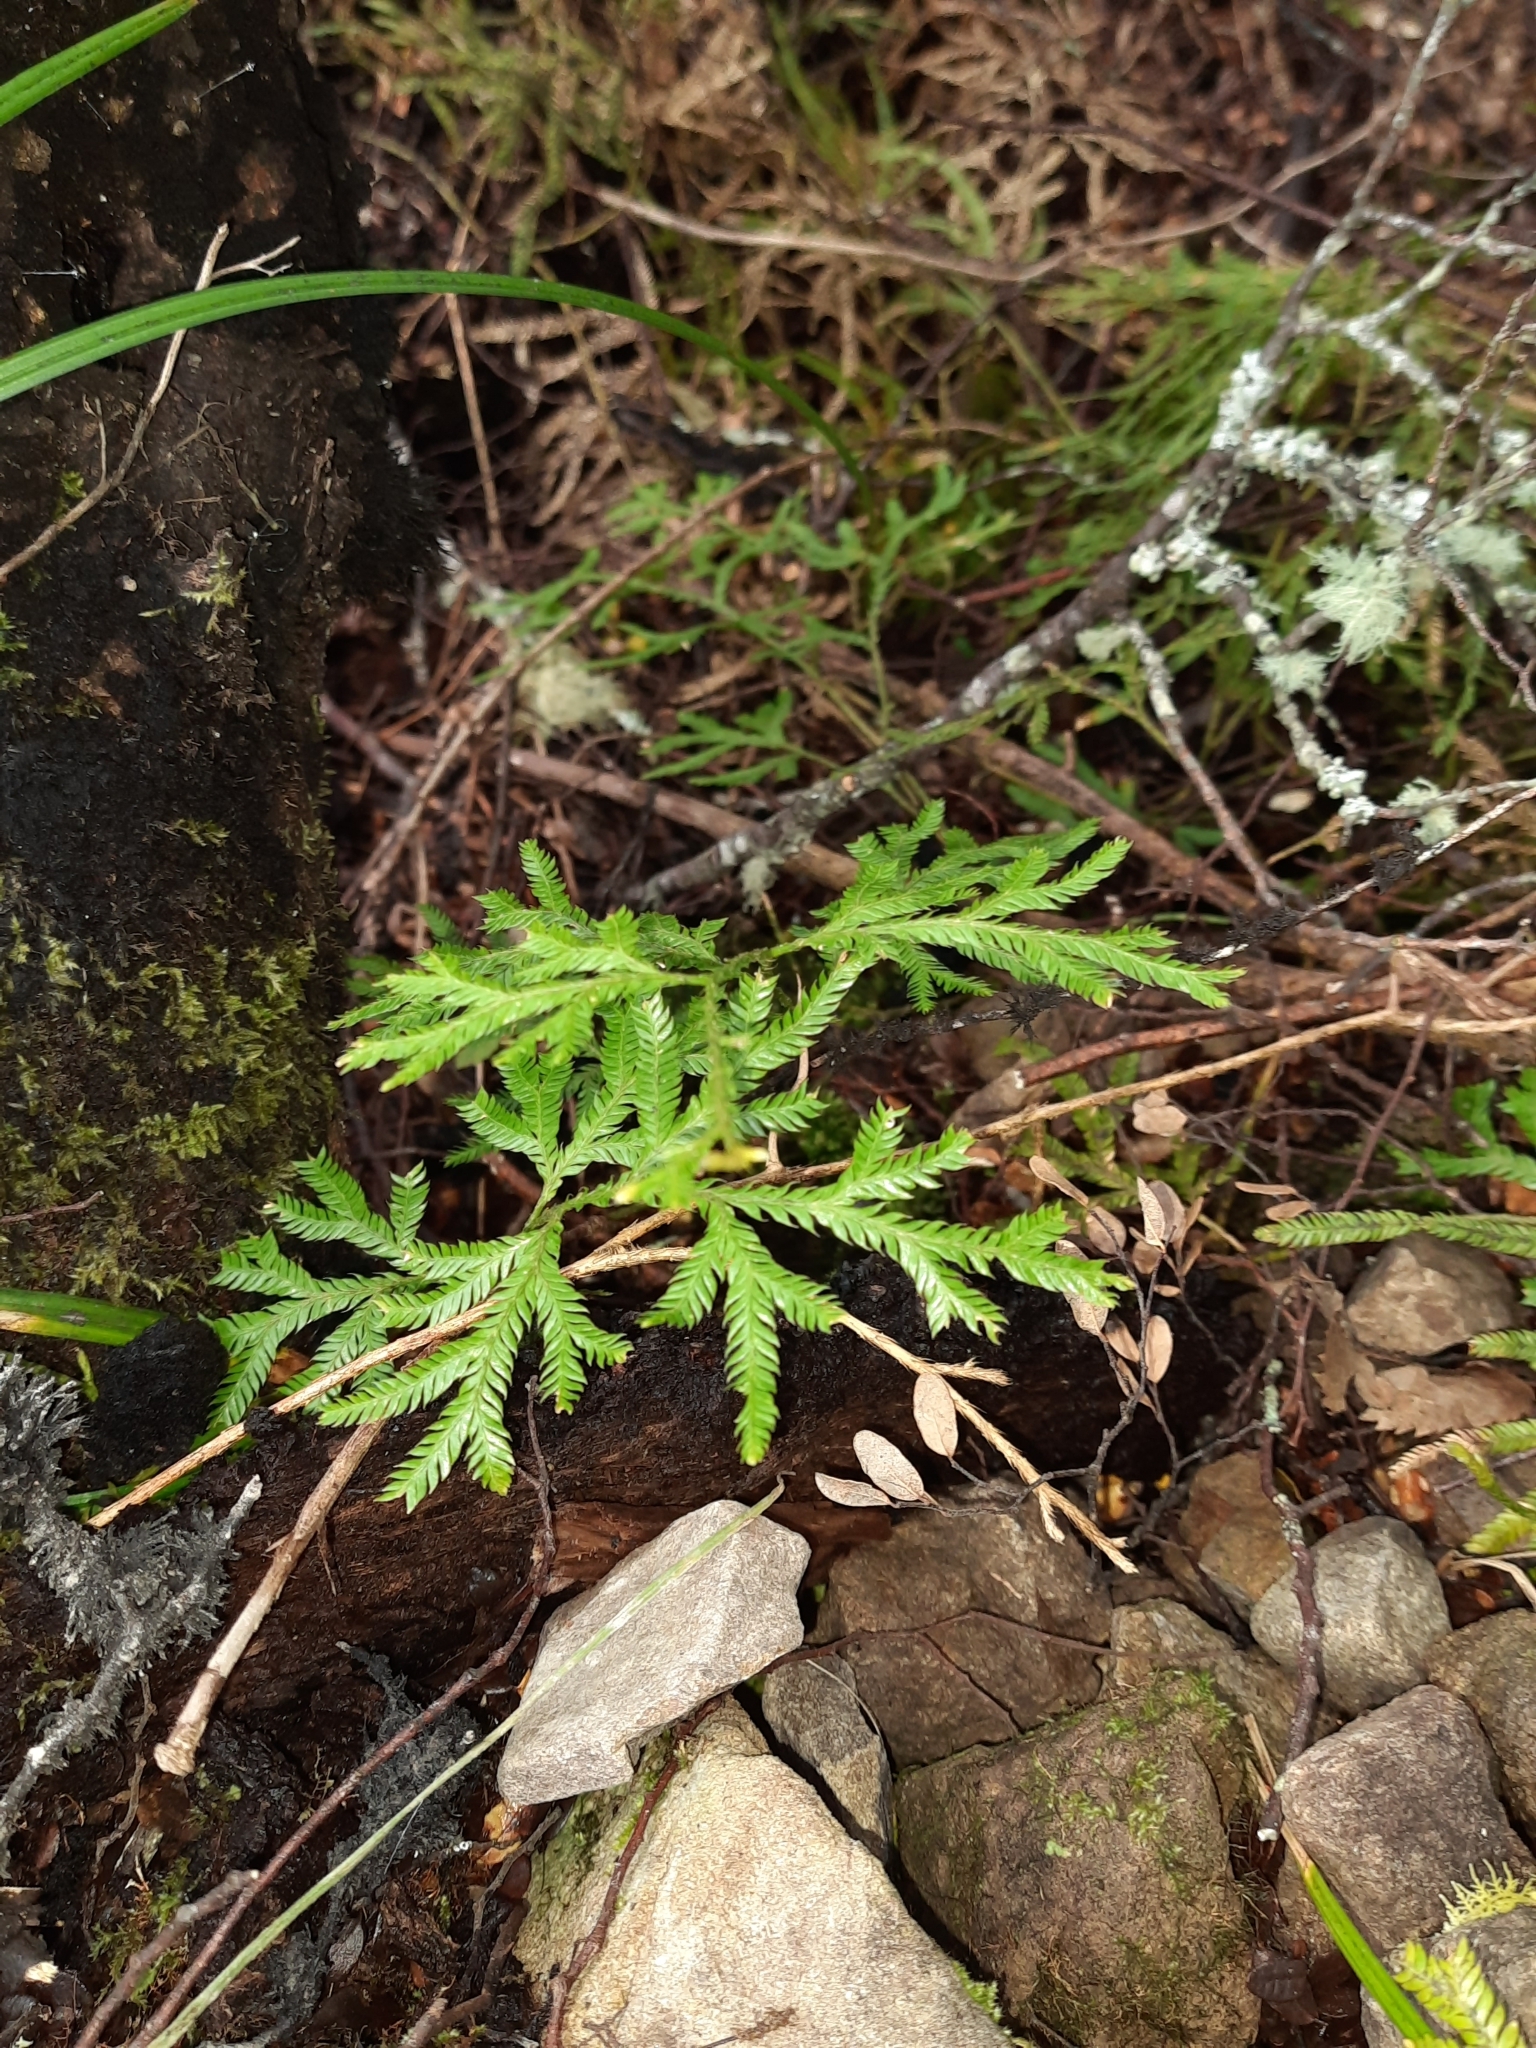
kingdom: Plantae
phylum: Tracheophyta
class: Lycopodiopsida
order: Lycopodiales
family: Lycopodiaceae
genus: Lycopodium
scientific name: Lycopodium volubile
